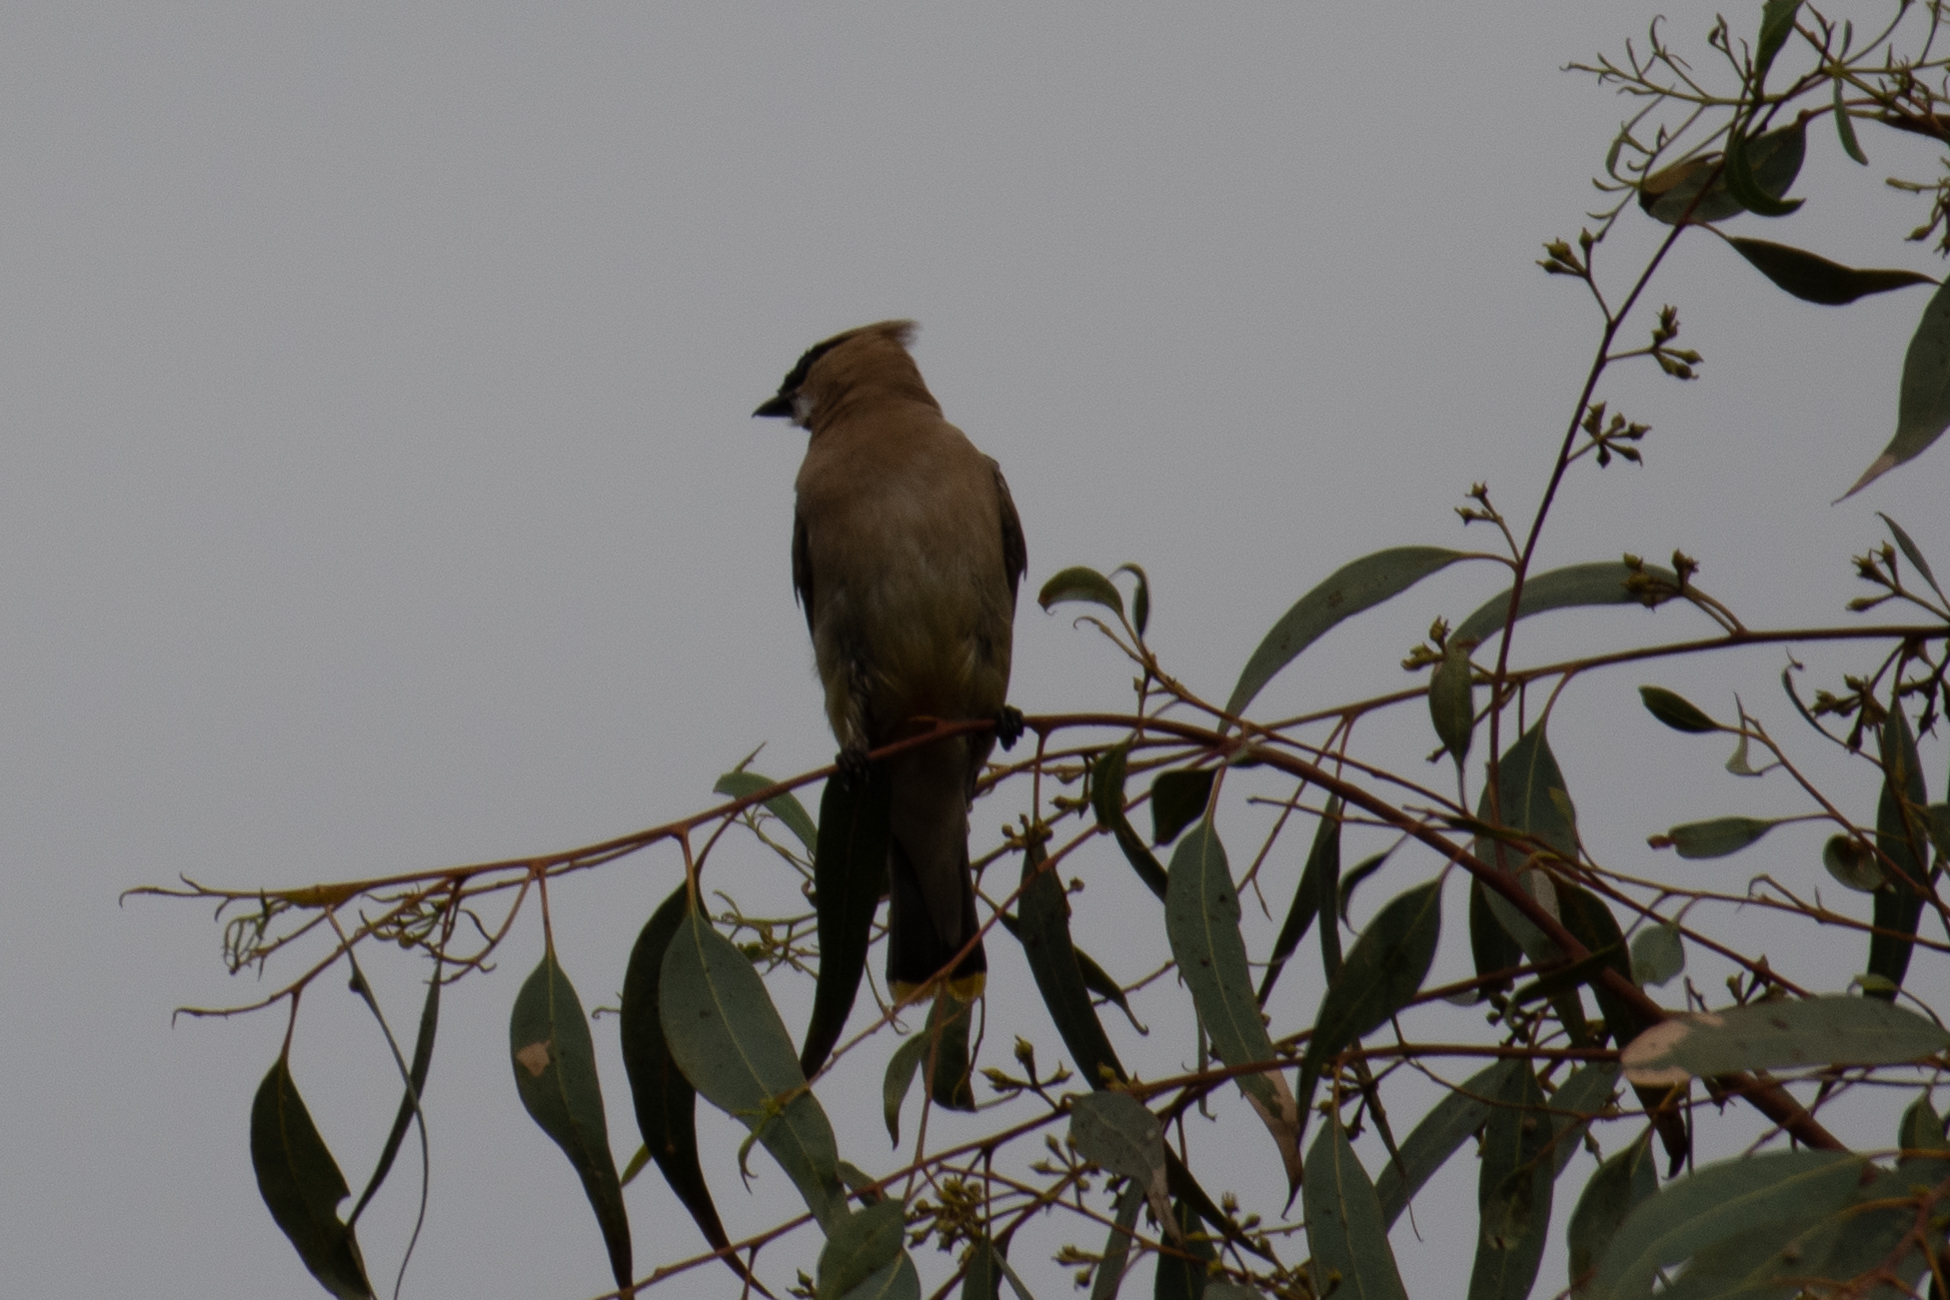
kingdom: Animalia
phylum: Chordata
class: Aves
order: Passeriformes
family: Bombycillidae
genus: Bombycilla
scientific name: Bombycilla cedrorum
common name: Cedar waxwing
